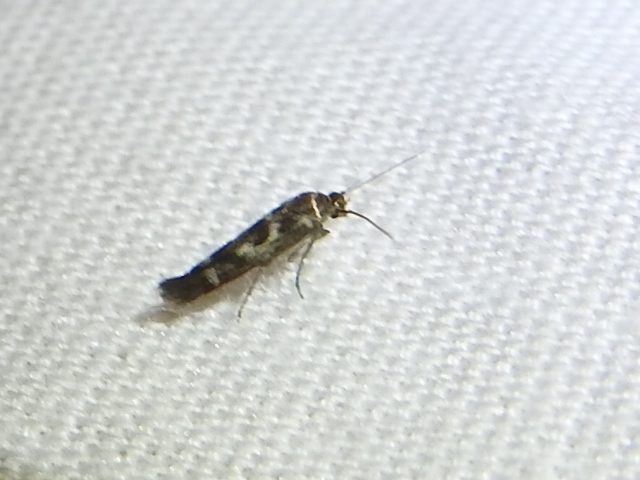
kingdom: Animalia
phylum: Arthropoda
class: Insecta
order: Lepidoptera
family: Scythrididae
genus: Scythris
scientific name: Scythris trivinctella
